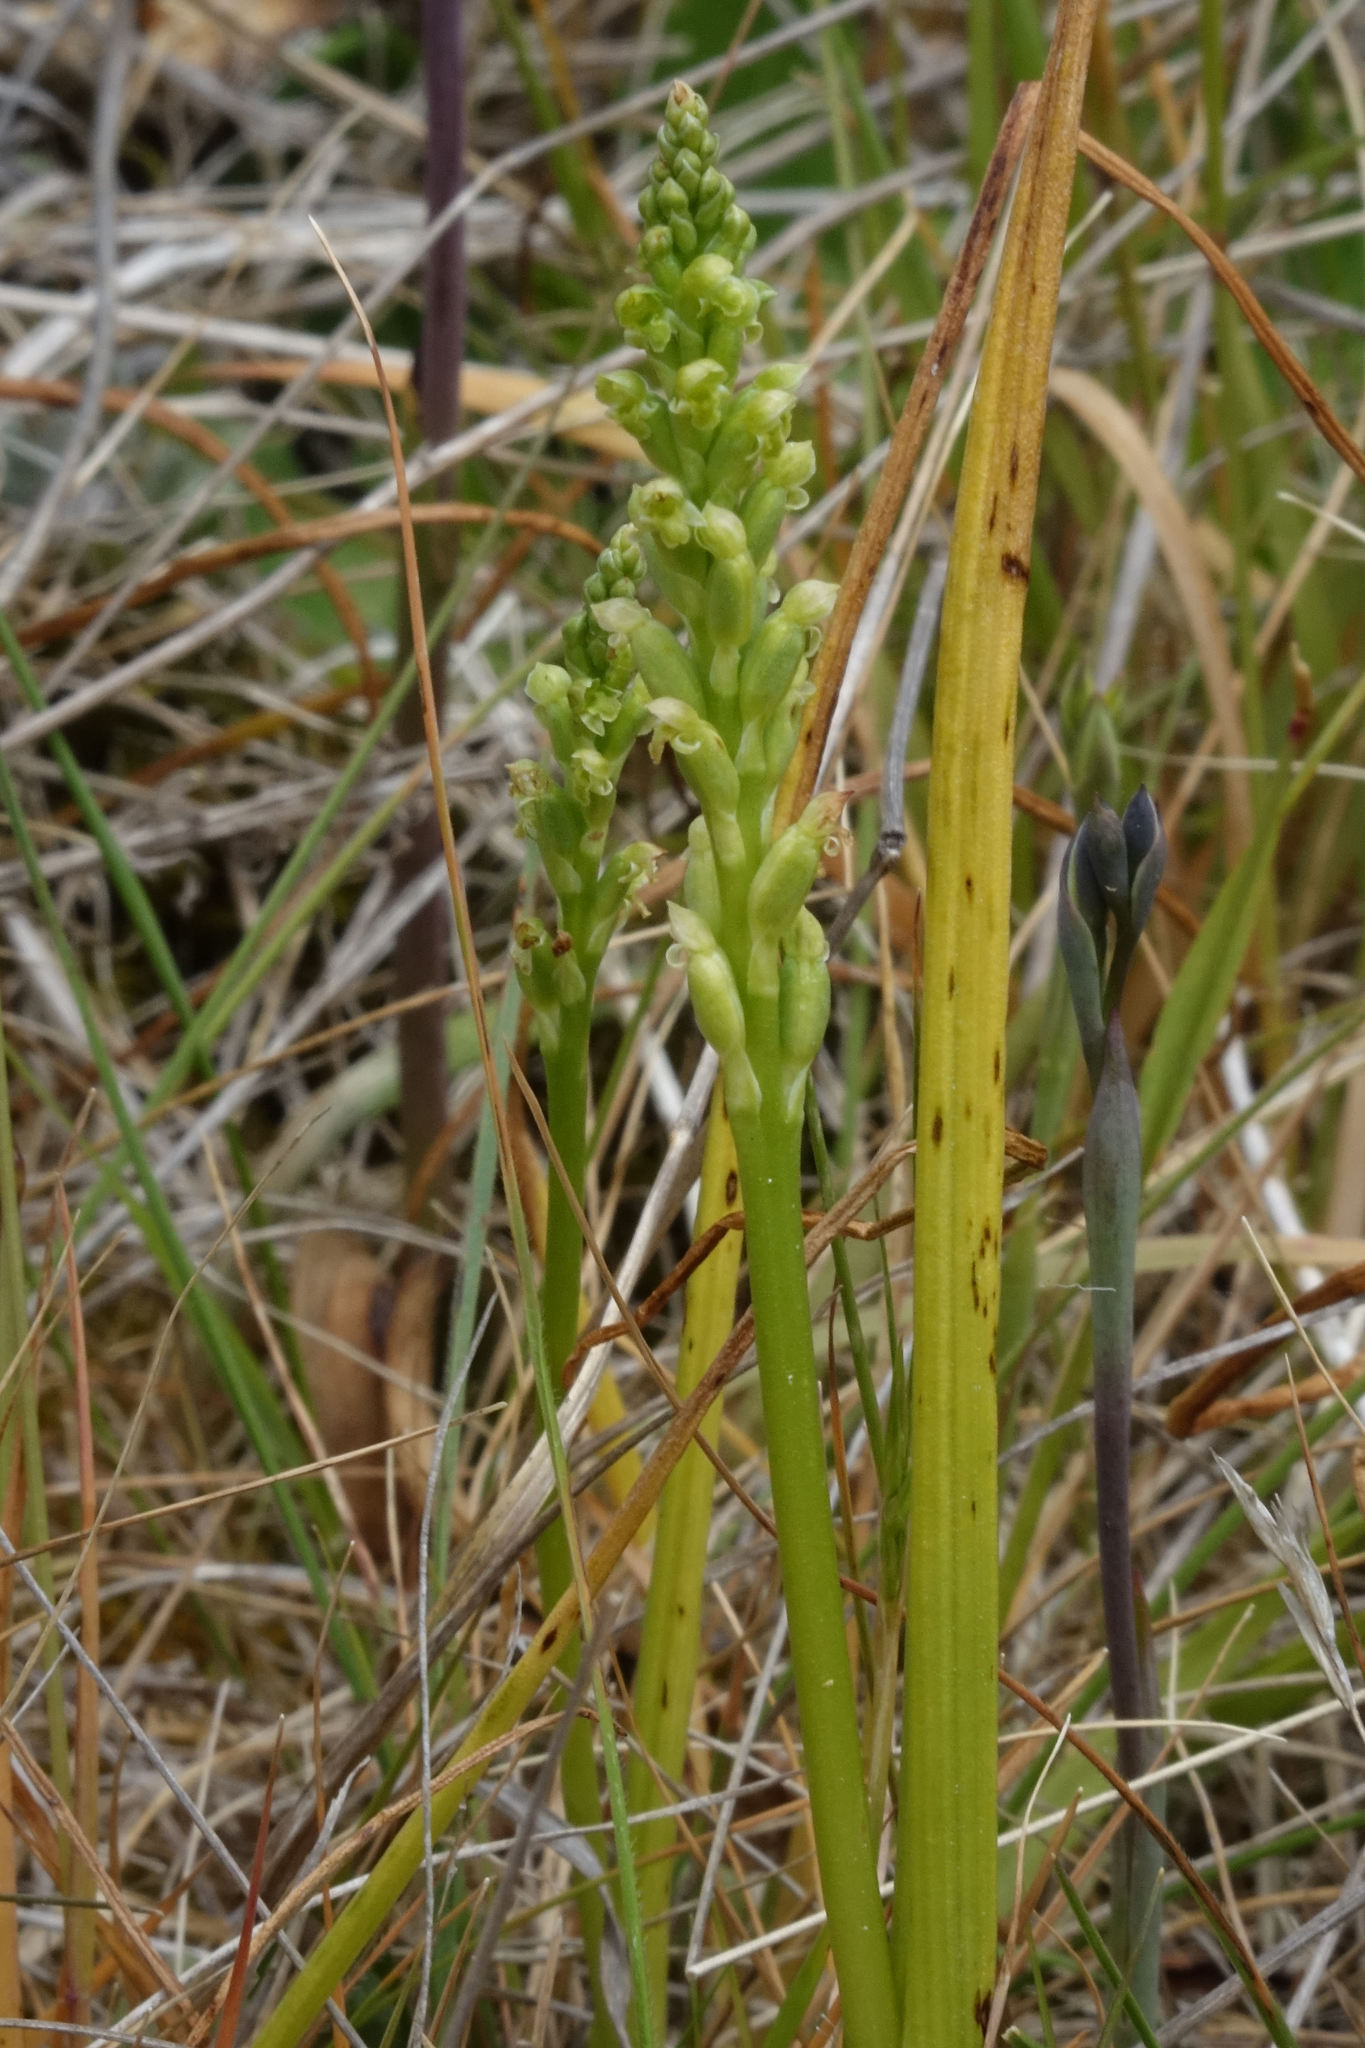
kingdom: Plantae
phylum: Tracheophyta
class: Liliopsida
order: Asparagales
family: Orchidaceae
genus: Microtis
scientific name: Microtis unifolia
